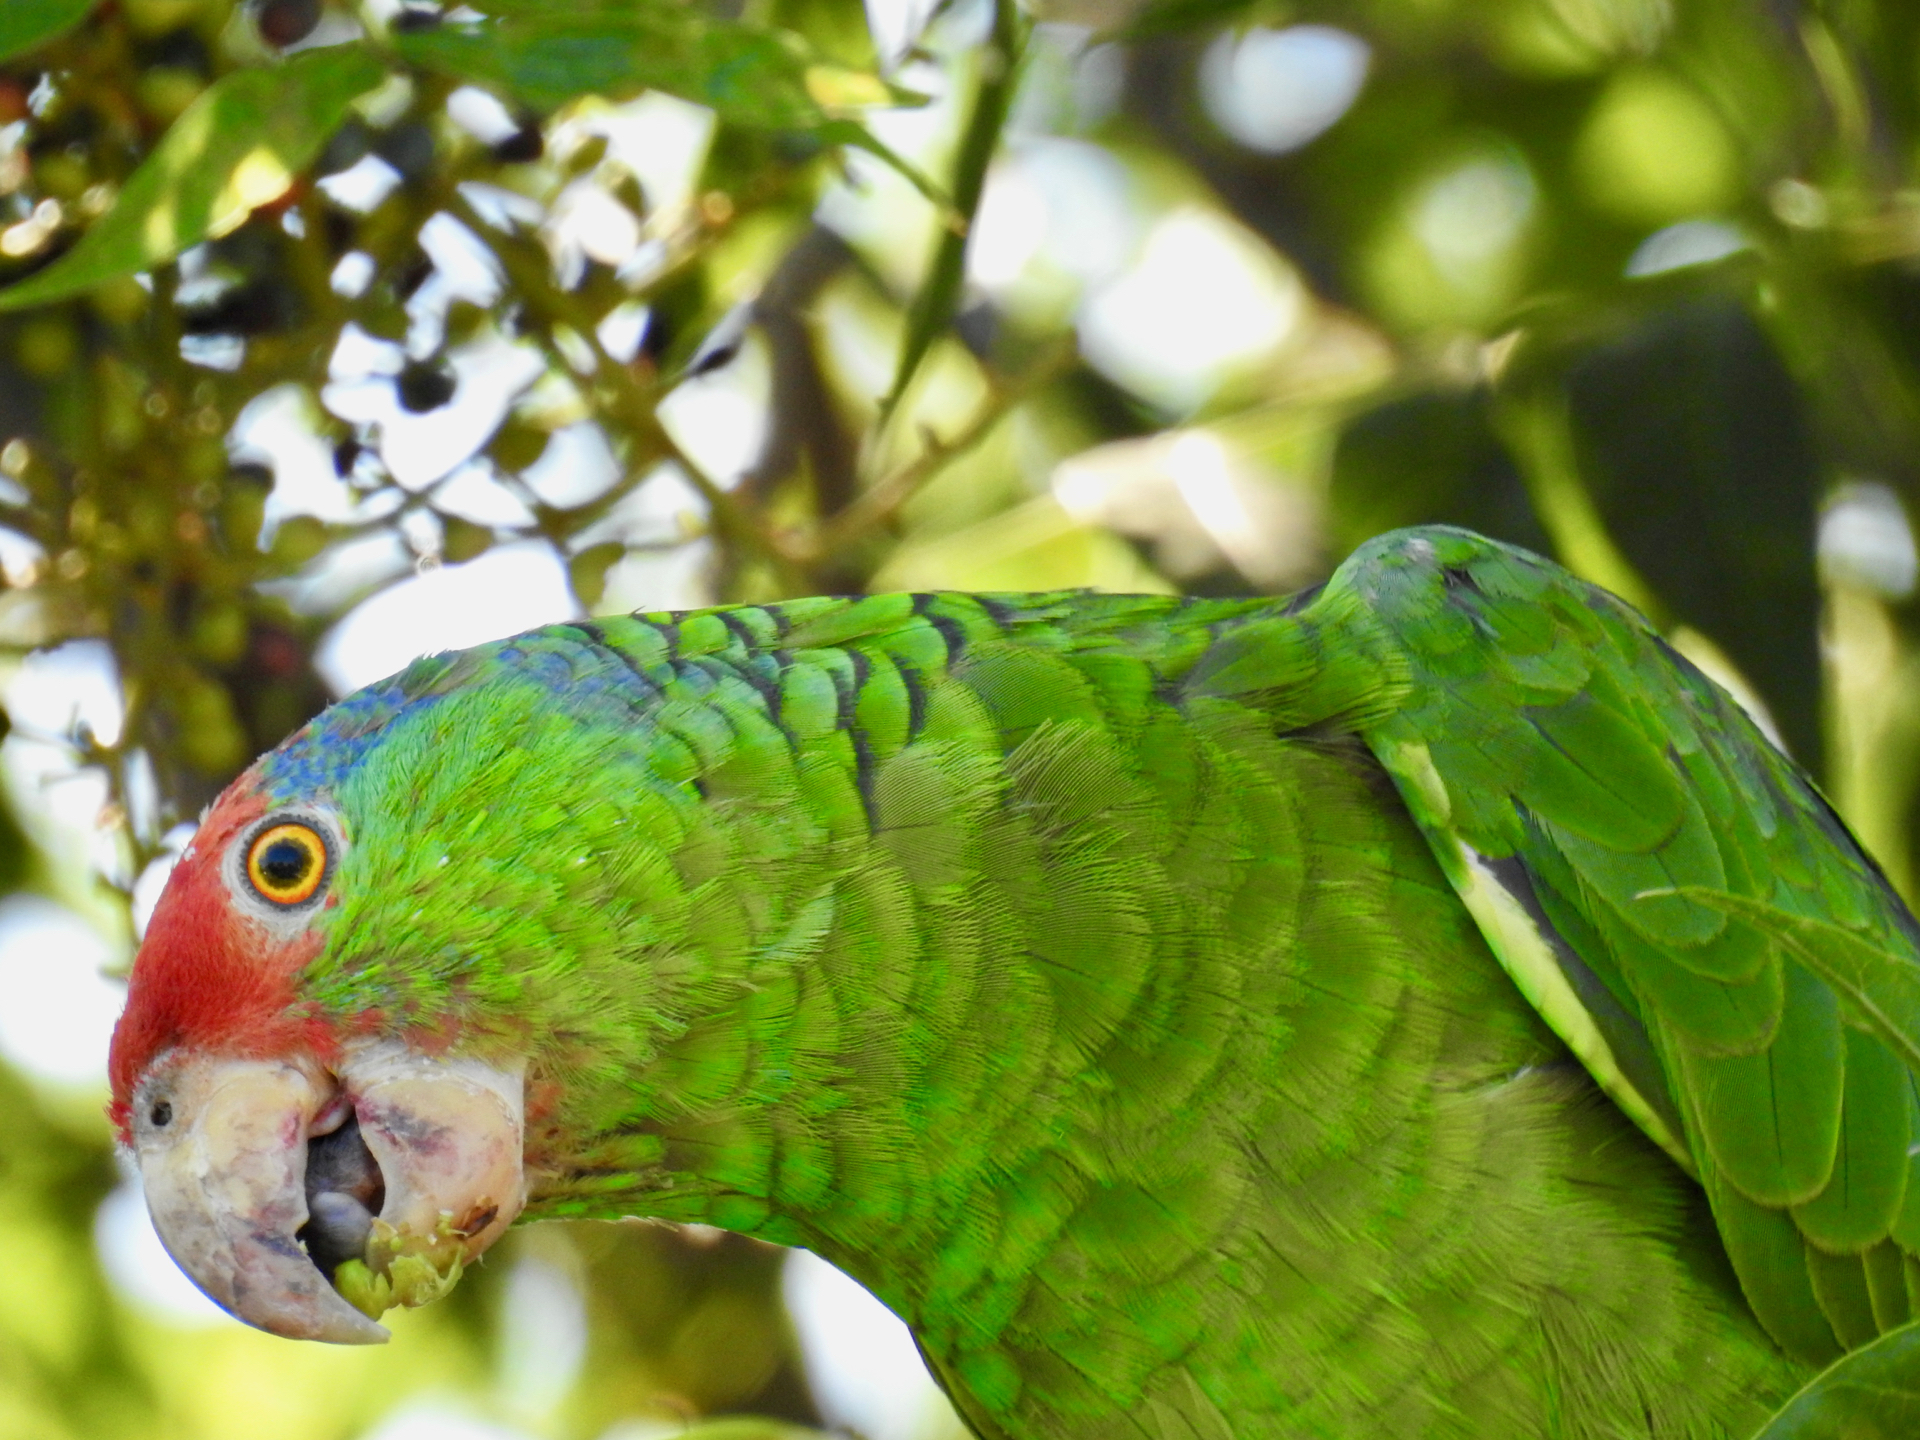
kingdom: Animalia
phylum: Chordata
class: Aves
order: Psittaciformes
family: Psittacidae
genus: Amazona
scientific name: Amazona viridigenalis
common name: Red-crowned amazon
